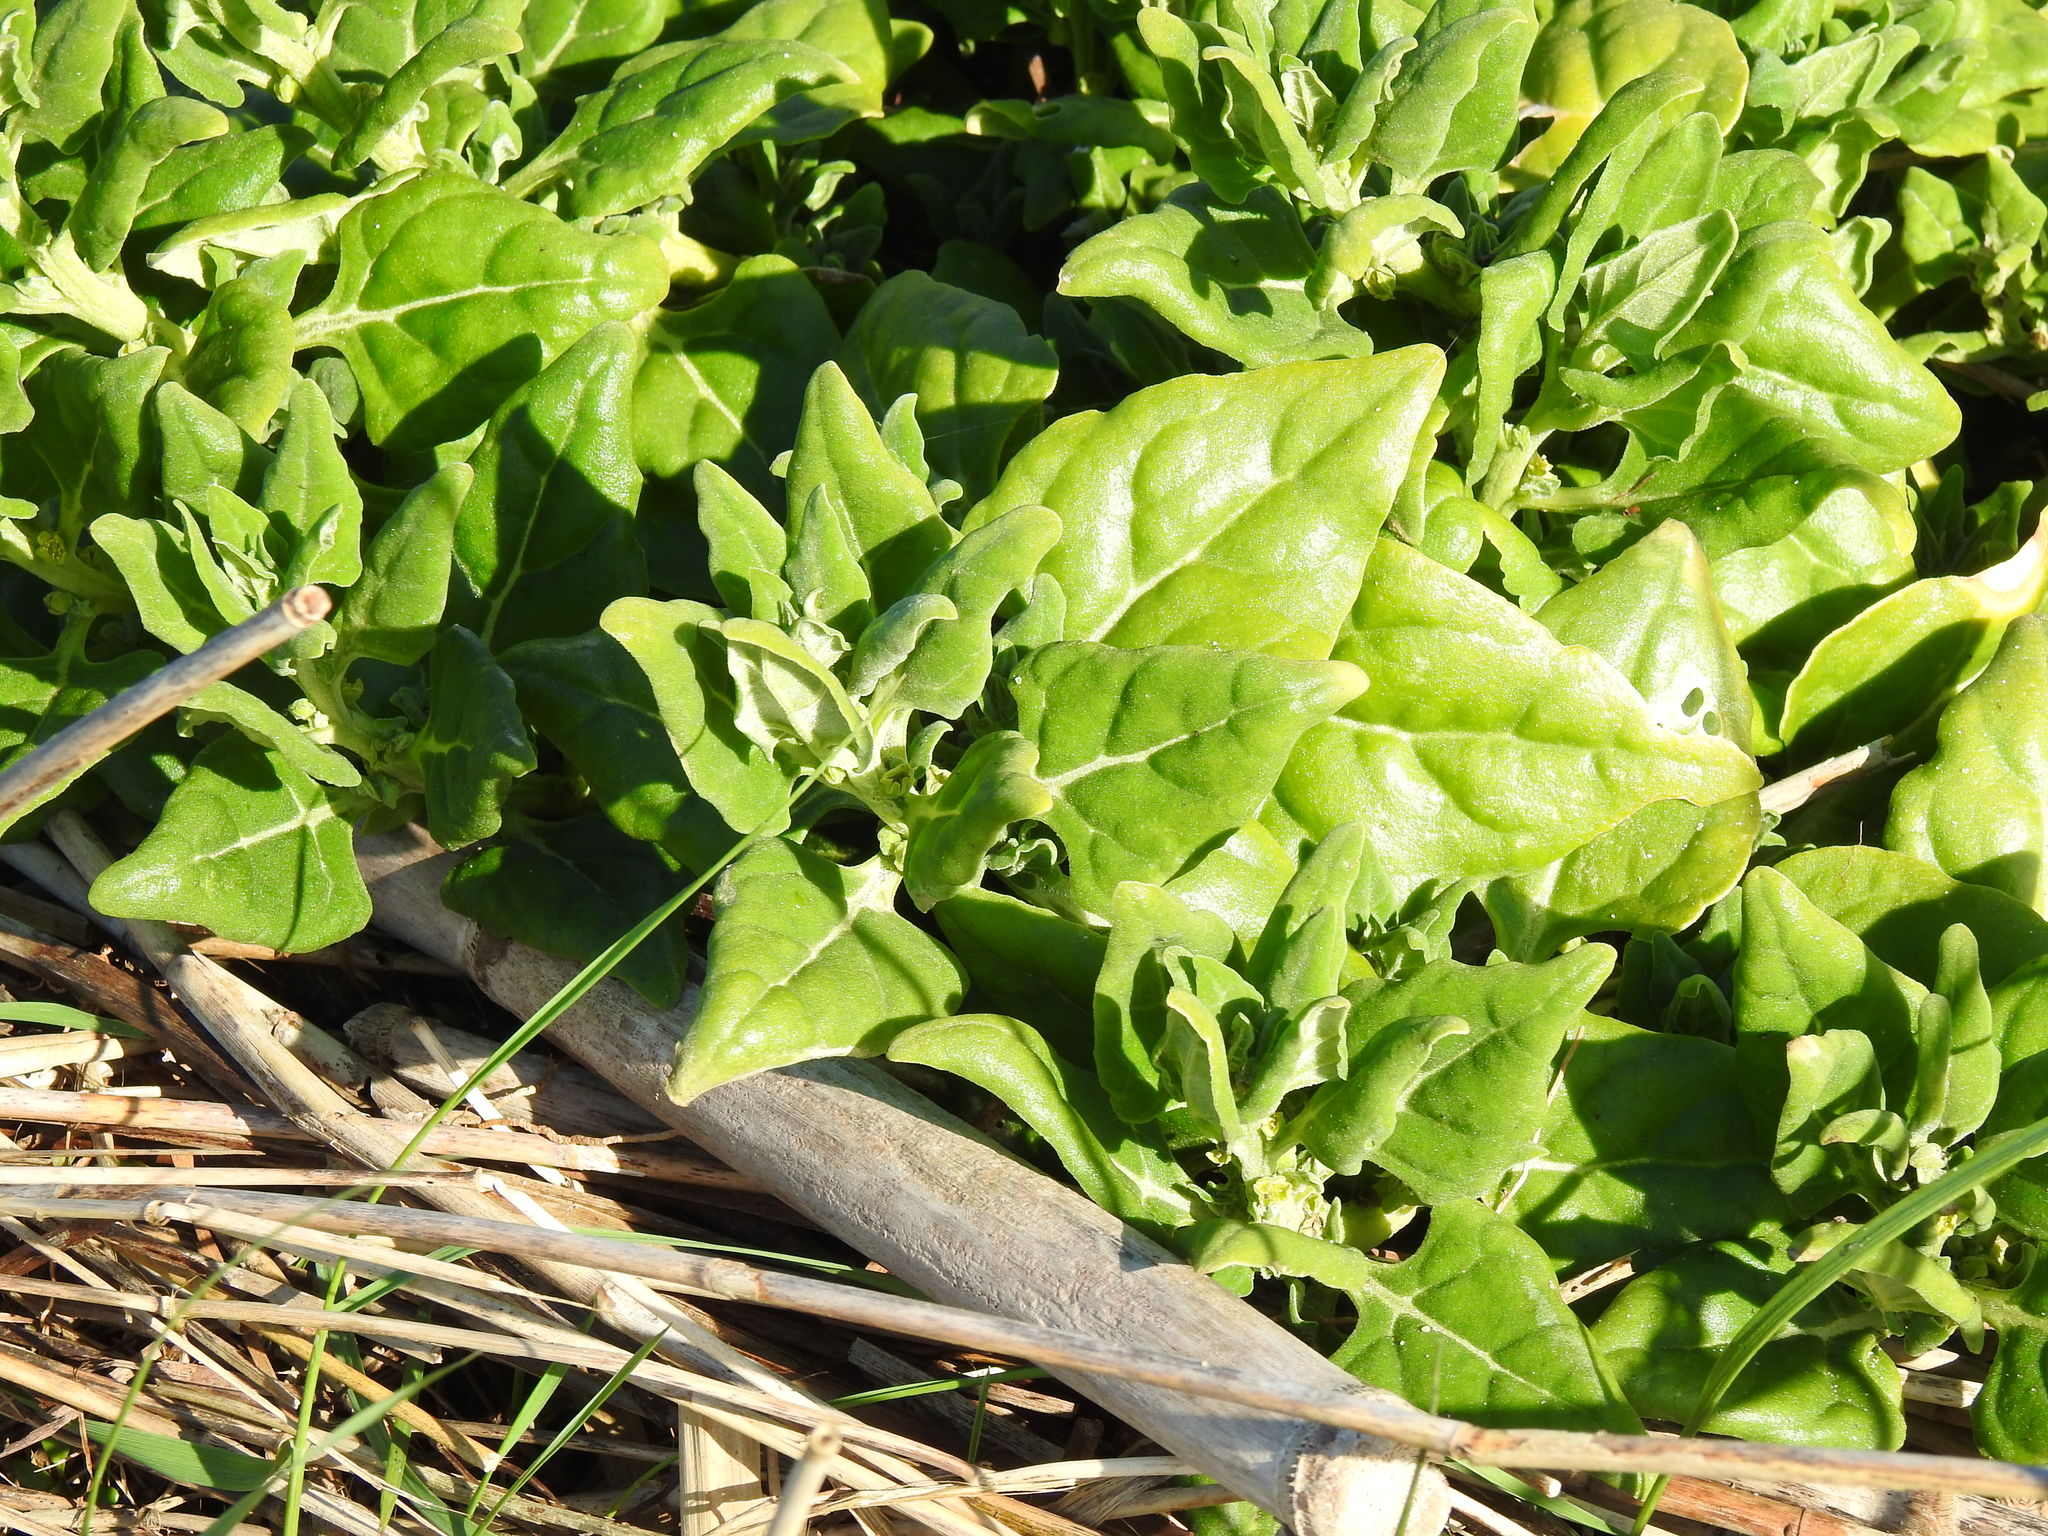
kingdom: Plantae
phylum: Tracheophyta
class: Magnoliopsida
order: Caryophyllales
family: Aizoaceae
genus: Tetragonia
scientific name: Tetragonia tetragonoides
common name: New zealand-spinach
